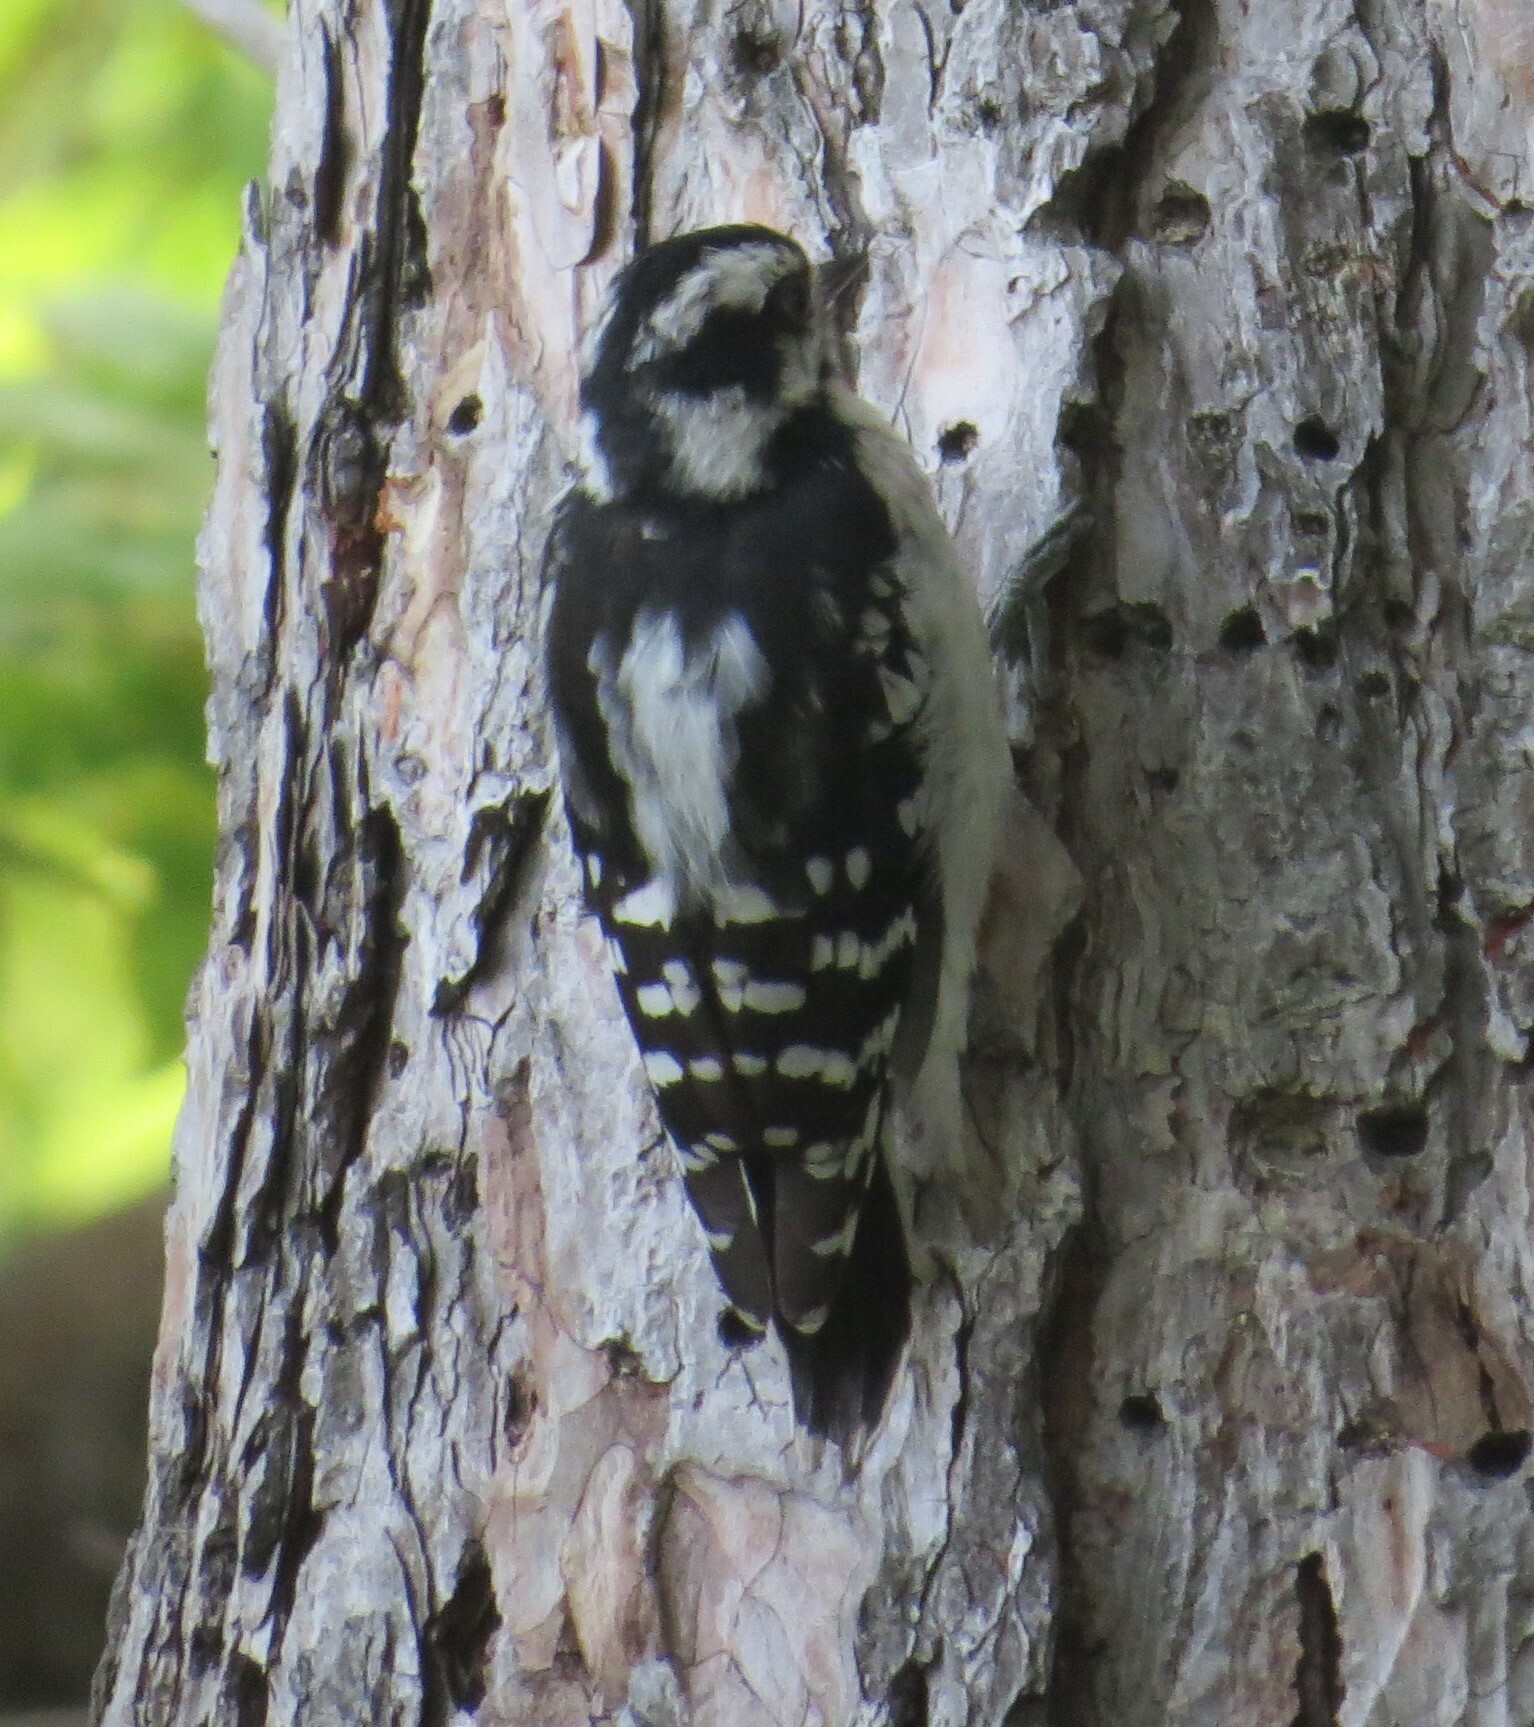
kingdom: Animalia
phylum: Chordata
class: Aves
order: Piciformes
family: Picidae
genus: Dryobates
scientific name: Dryobates pubescens
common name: Downy woodpecker
